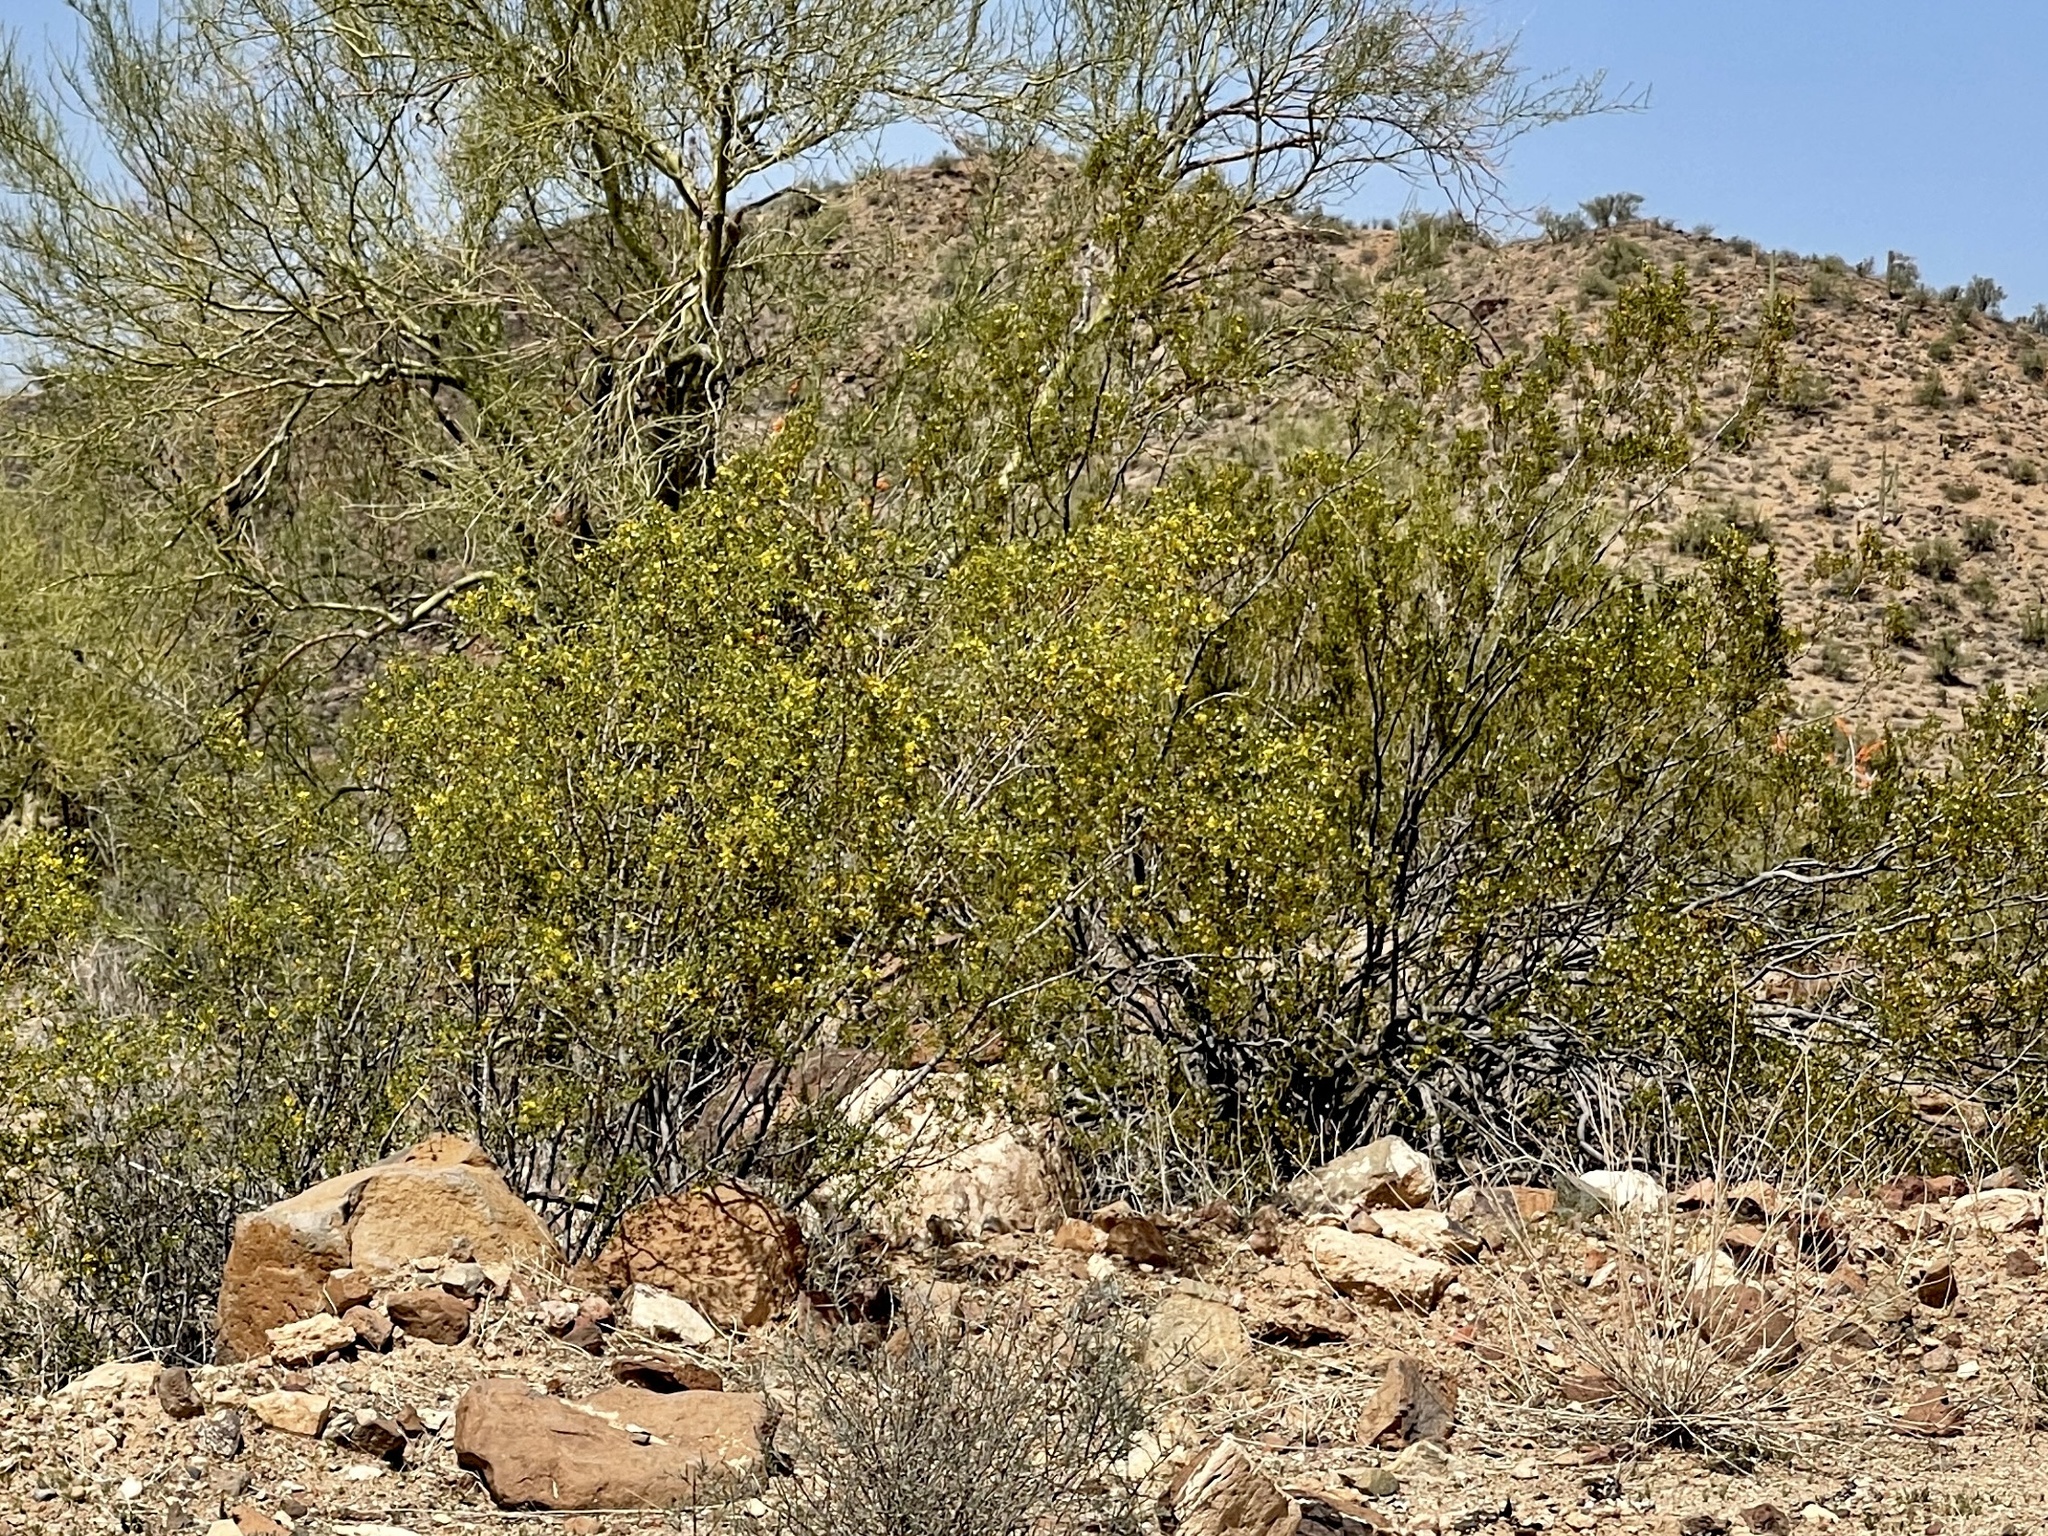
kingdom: Plantae
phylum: Tracheophyta
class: Magnoliopsida
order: Zygophyllales
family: Zygophyllaceae
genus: Larrea
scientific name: Larrea tridentata
